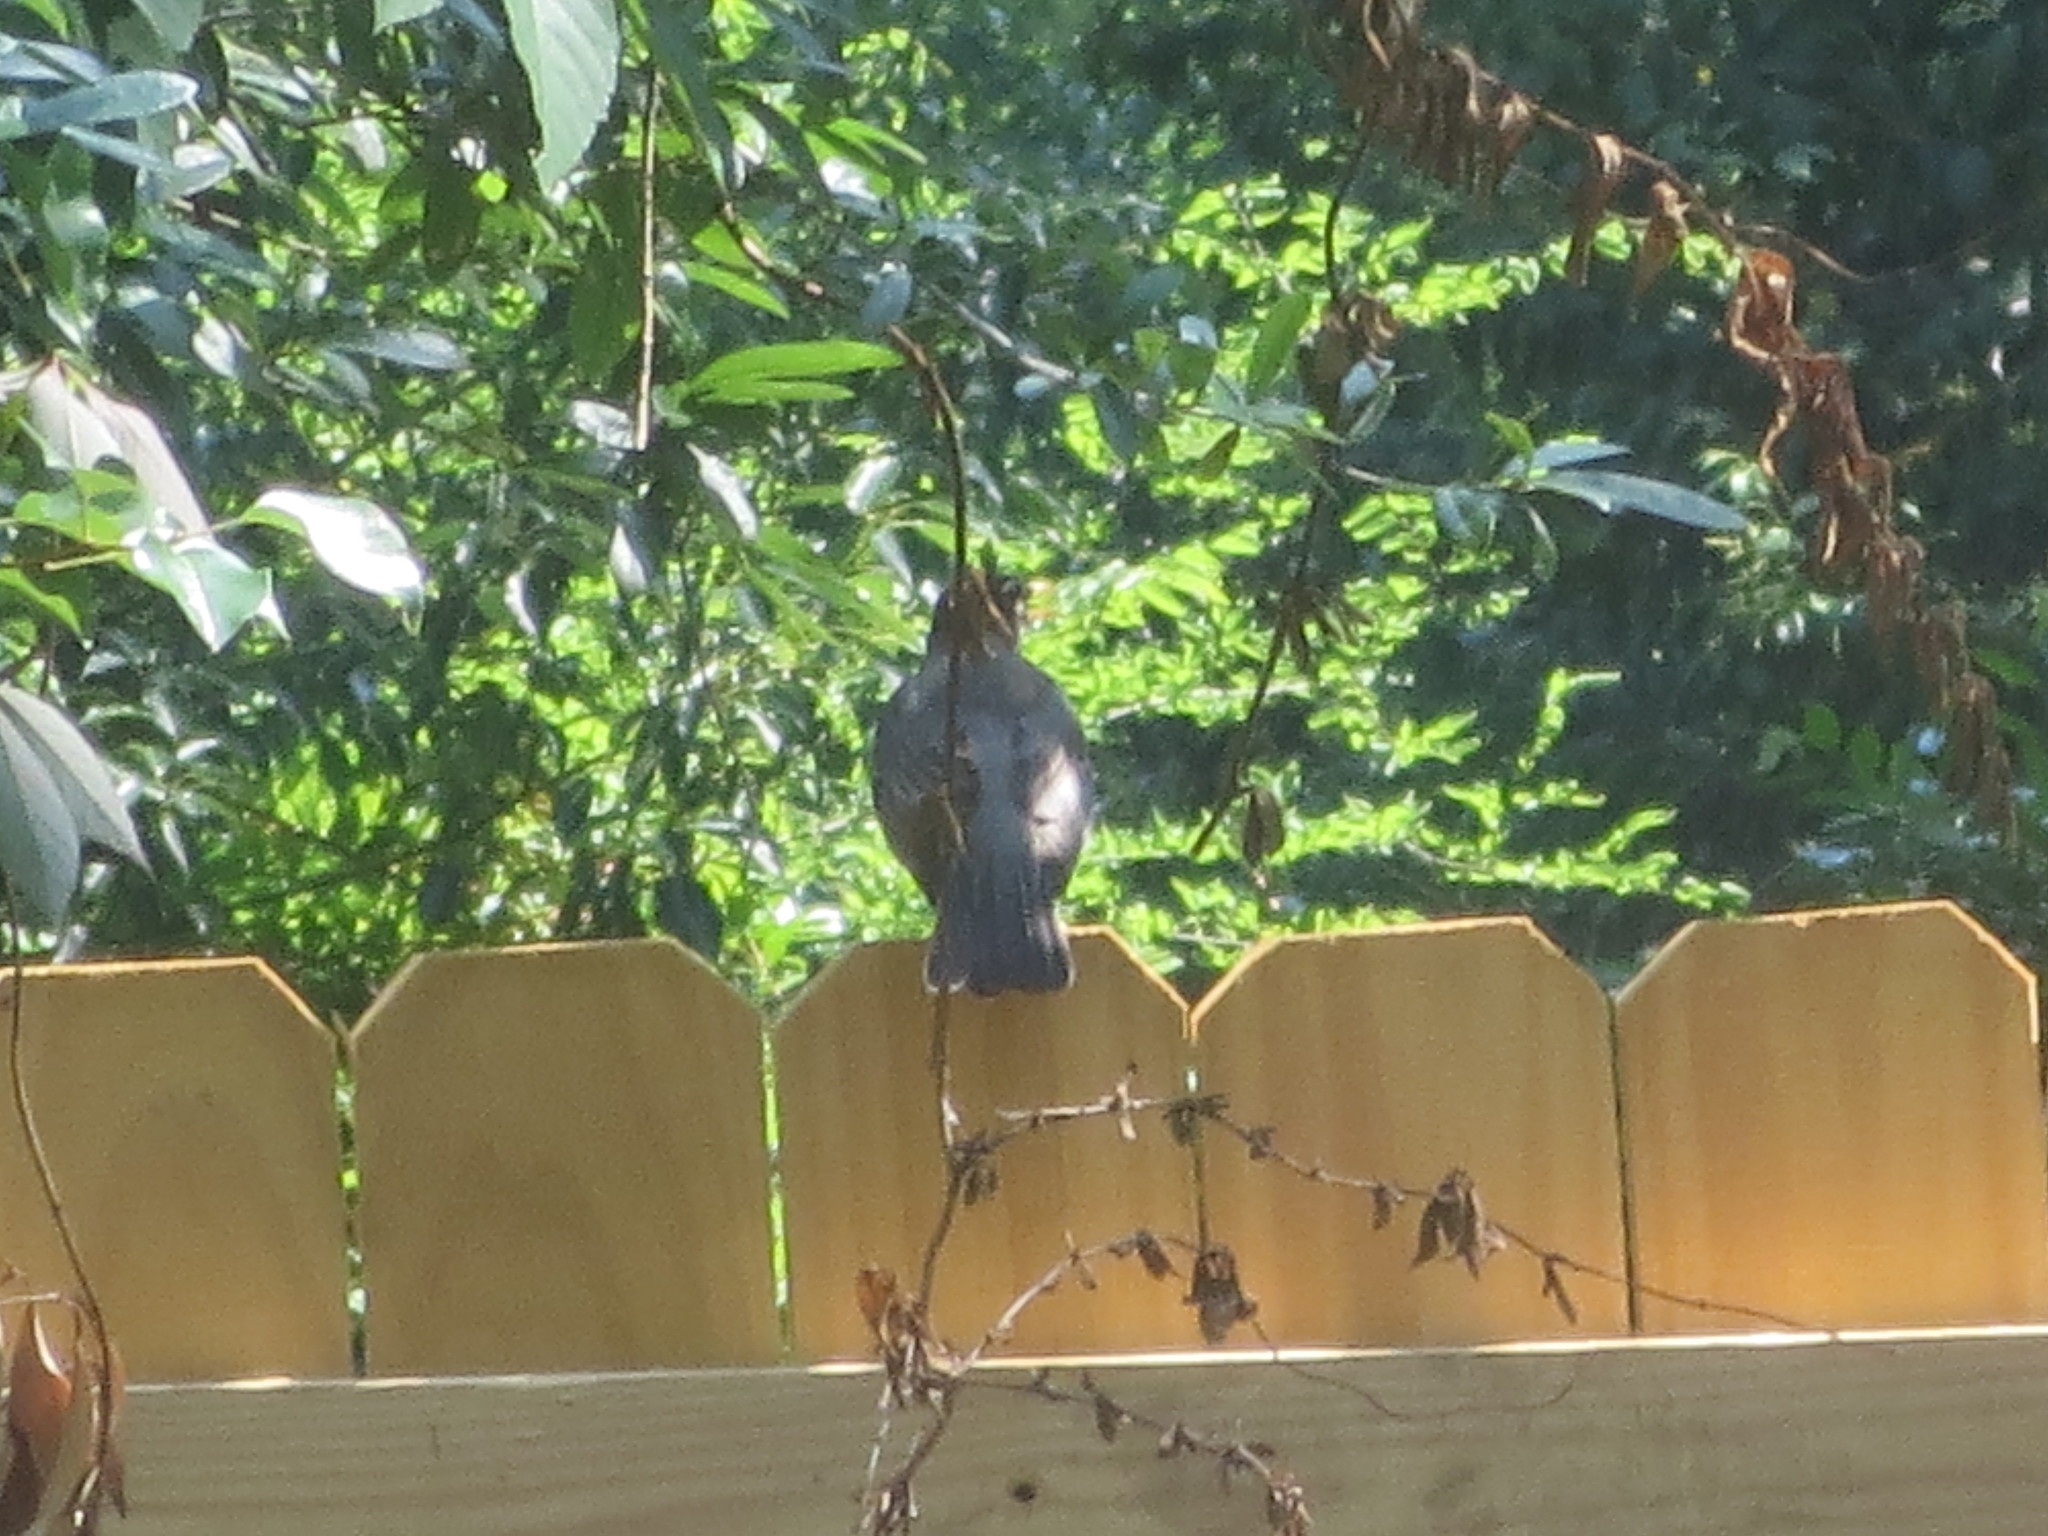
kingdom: Animalia
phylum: Chordata
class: Aves
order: Passeriformes
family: Turdidae
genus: Turdus
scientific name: Turdus migratorius
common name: American robin
